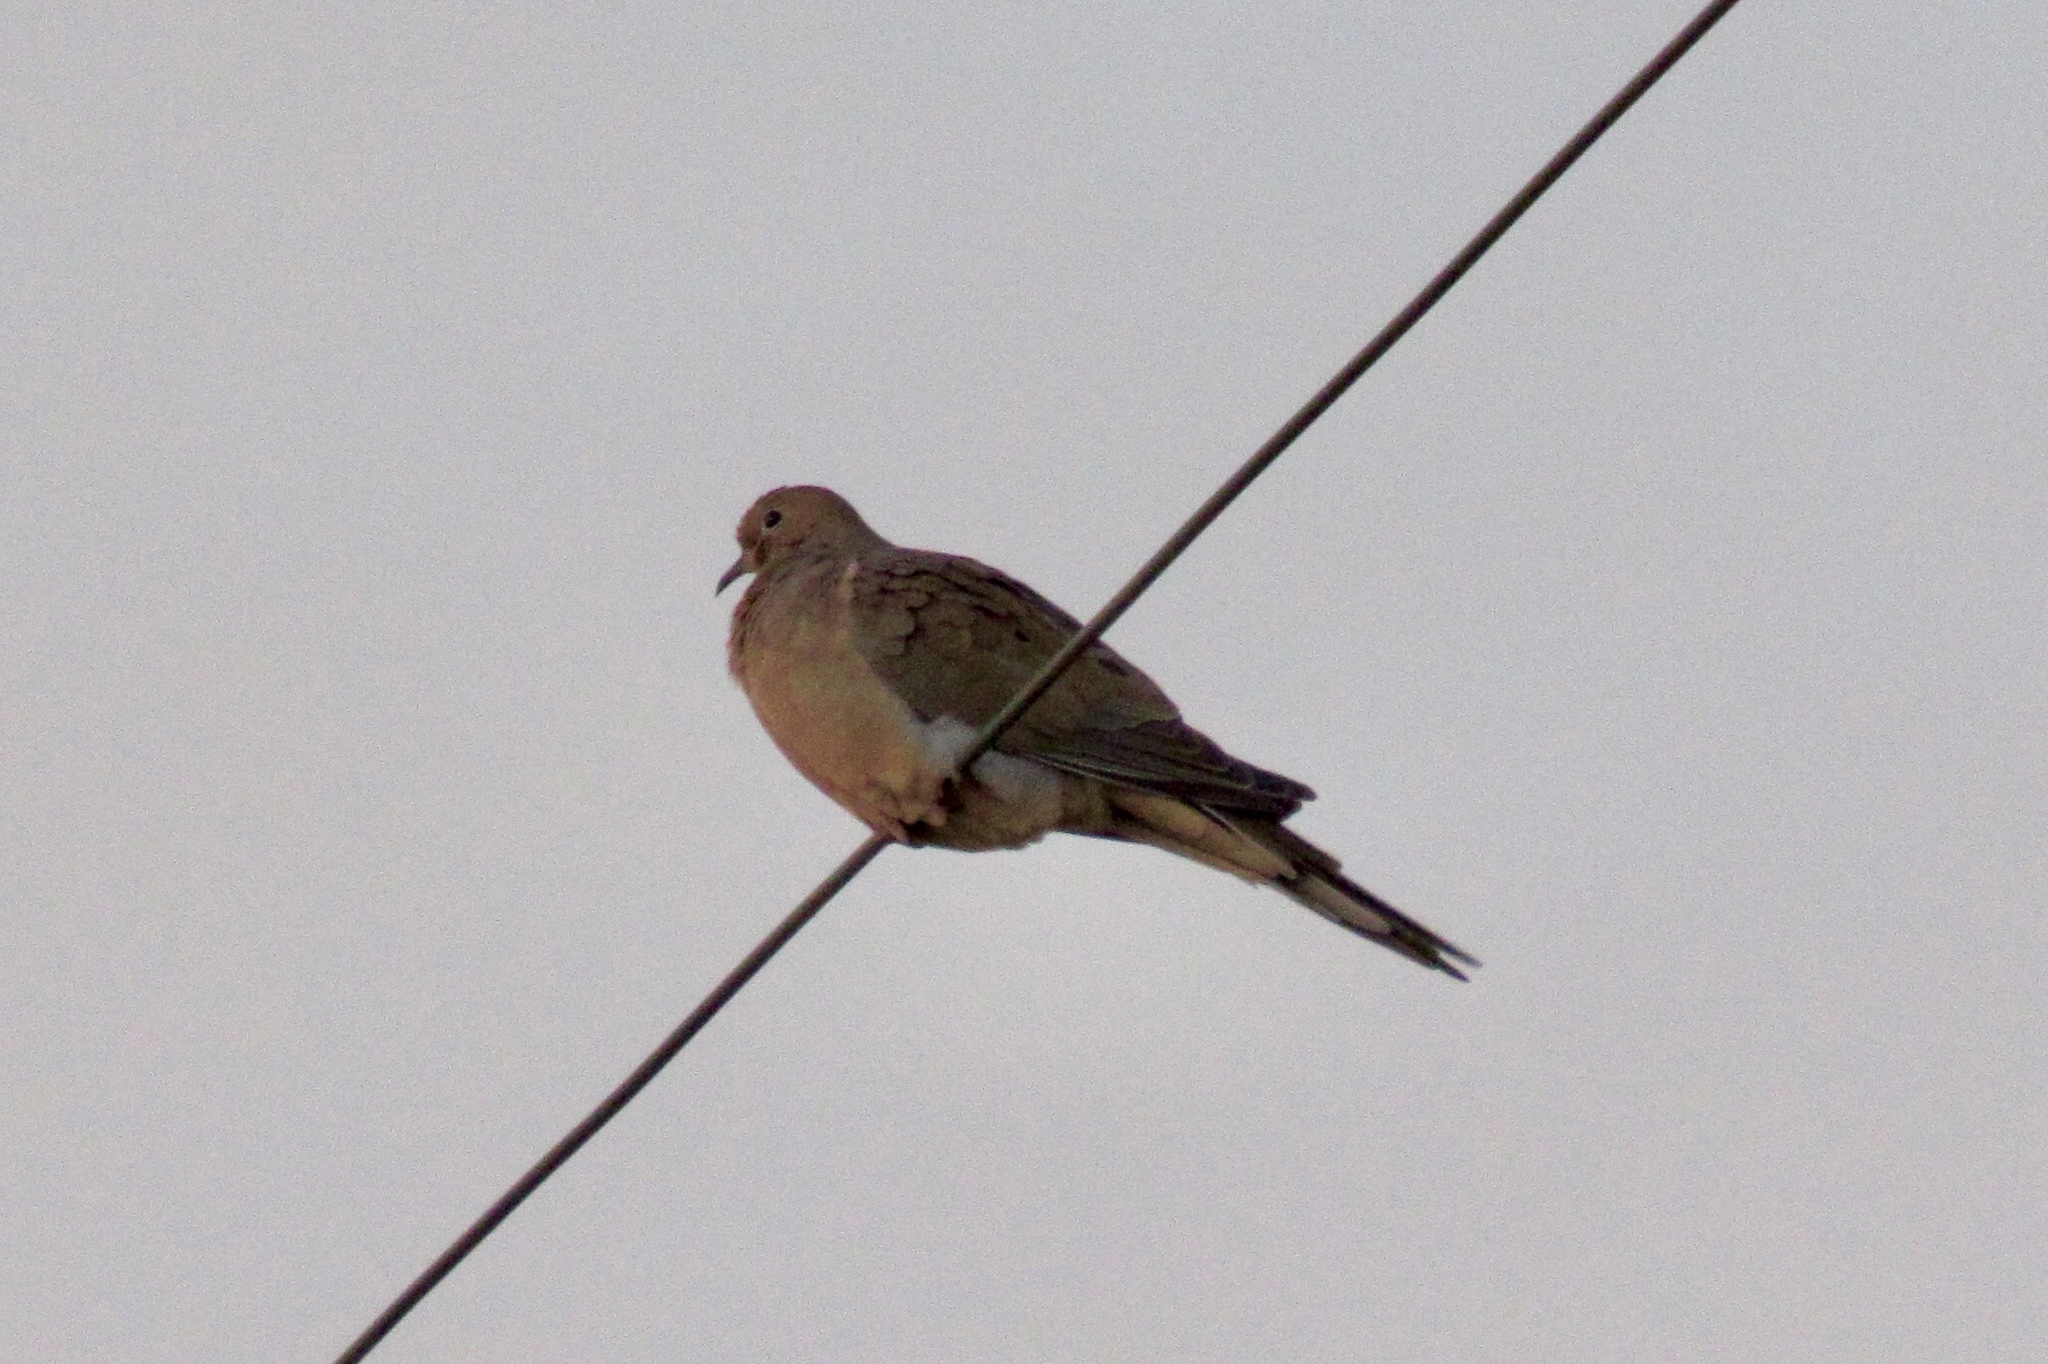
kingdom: Animalia
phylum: Chordata
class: Aves
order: Columbiformes
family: Columbidae
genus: Zenaida
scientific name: Zenaida macroura
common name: Mourning dove
